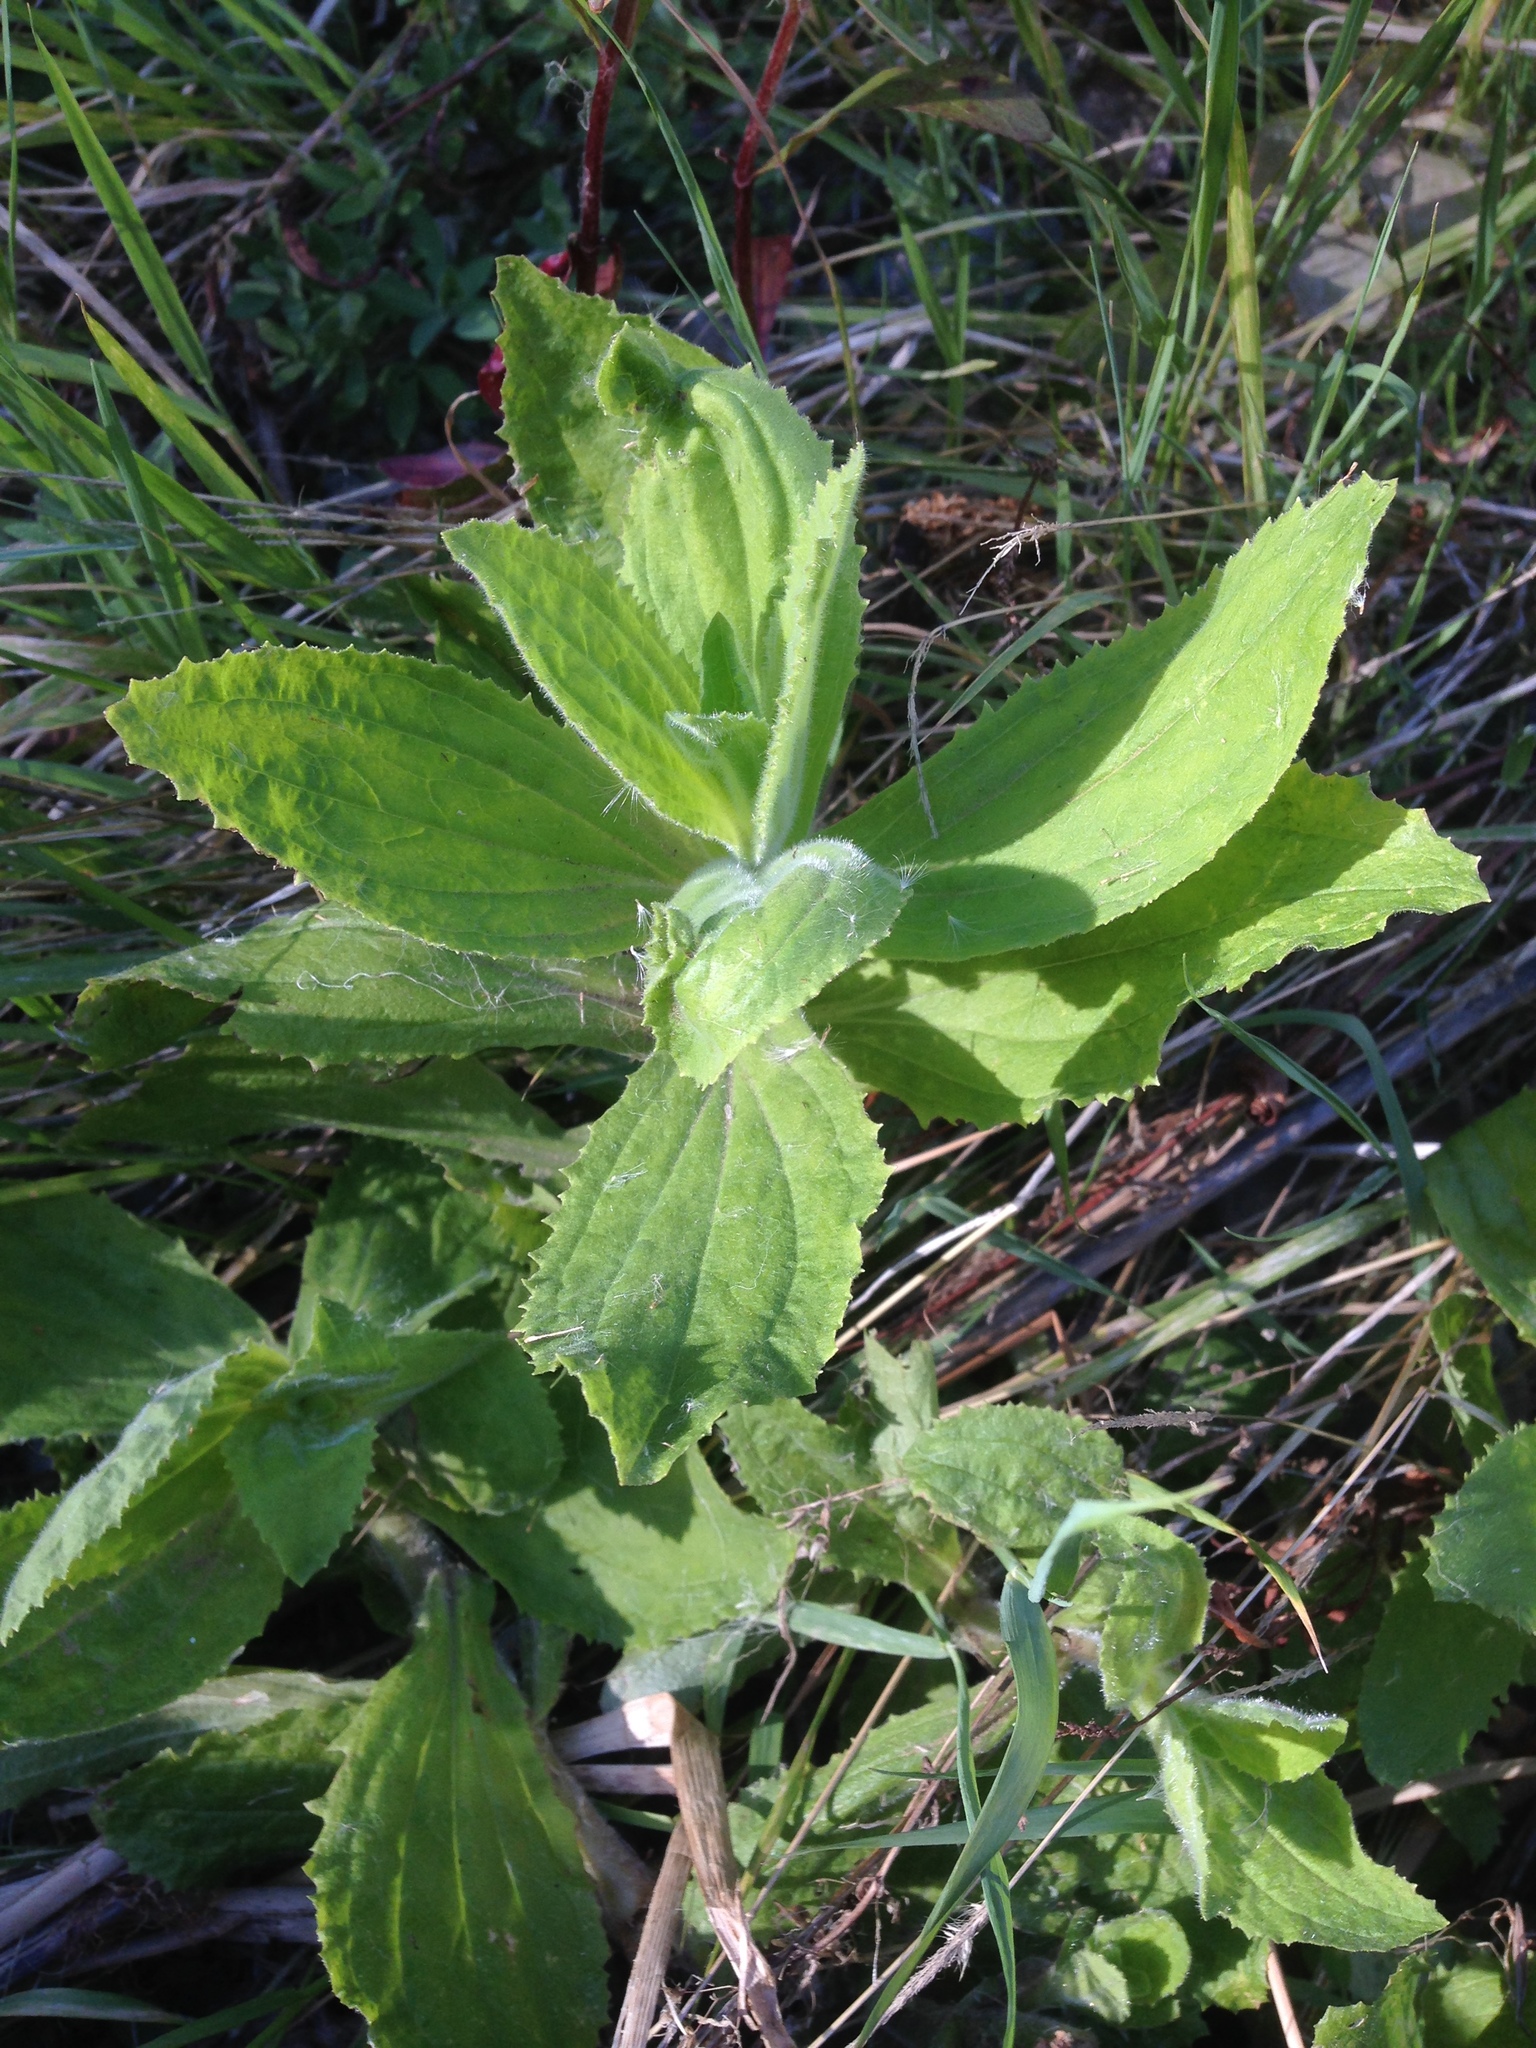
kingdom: Plantae
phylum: Tracheophyta
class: Magnoliopsida
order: Lamiales
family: Phrymaceae
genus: Erythranthe
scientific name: Erythranthe cardinalis
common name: Scarlet monkey-flower
